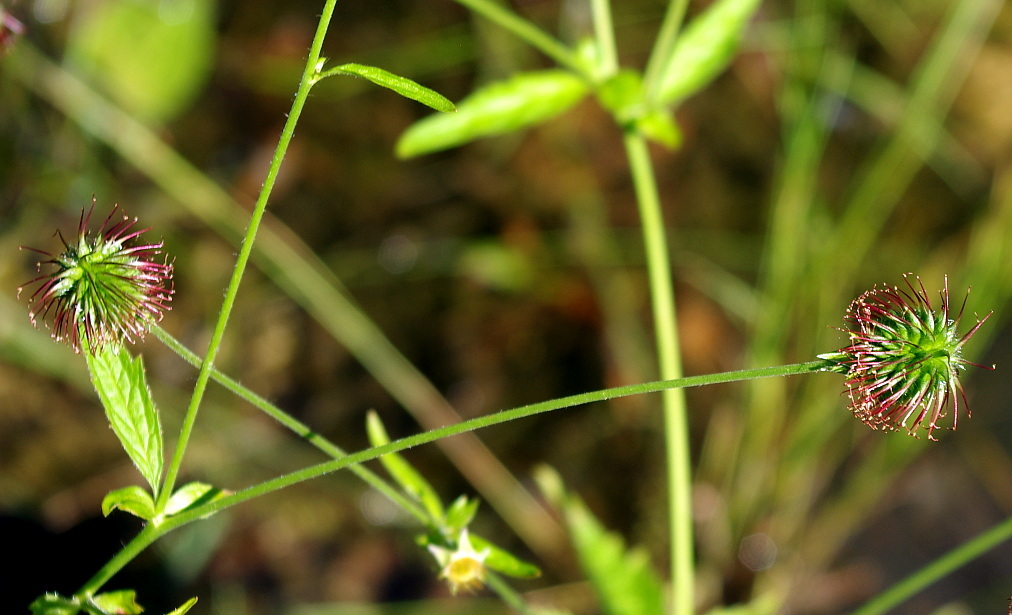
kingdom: Plantae
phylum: Tracheophyta
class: Magnoliopsida
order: Rosales
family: Rosaceae
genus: Geum
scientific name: Geum urbanum
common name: Wood avens
